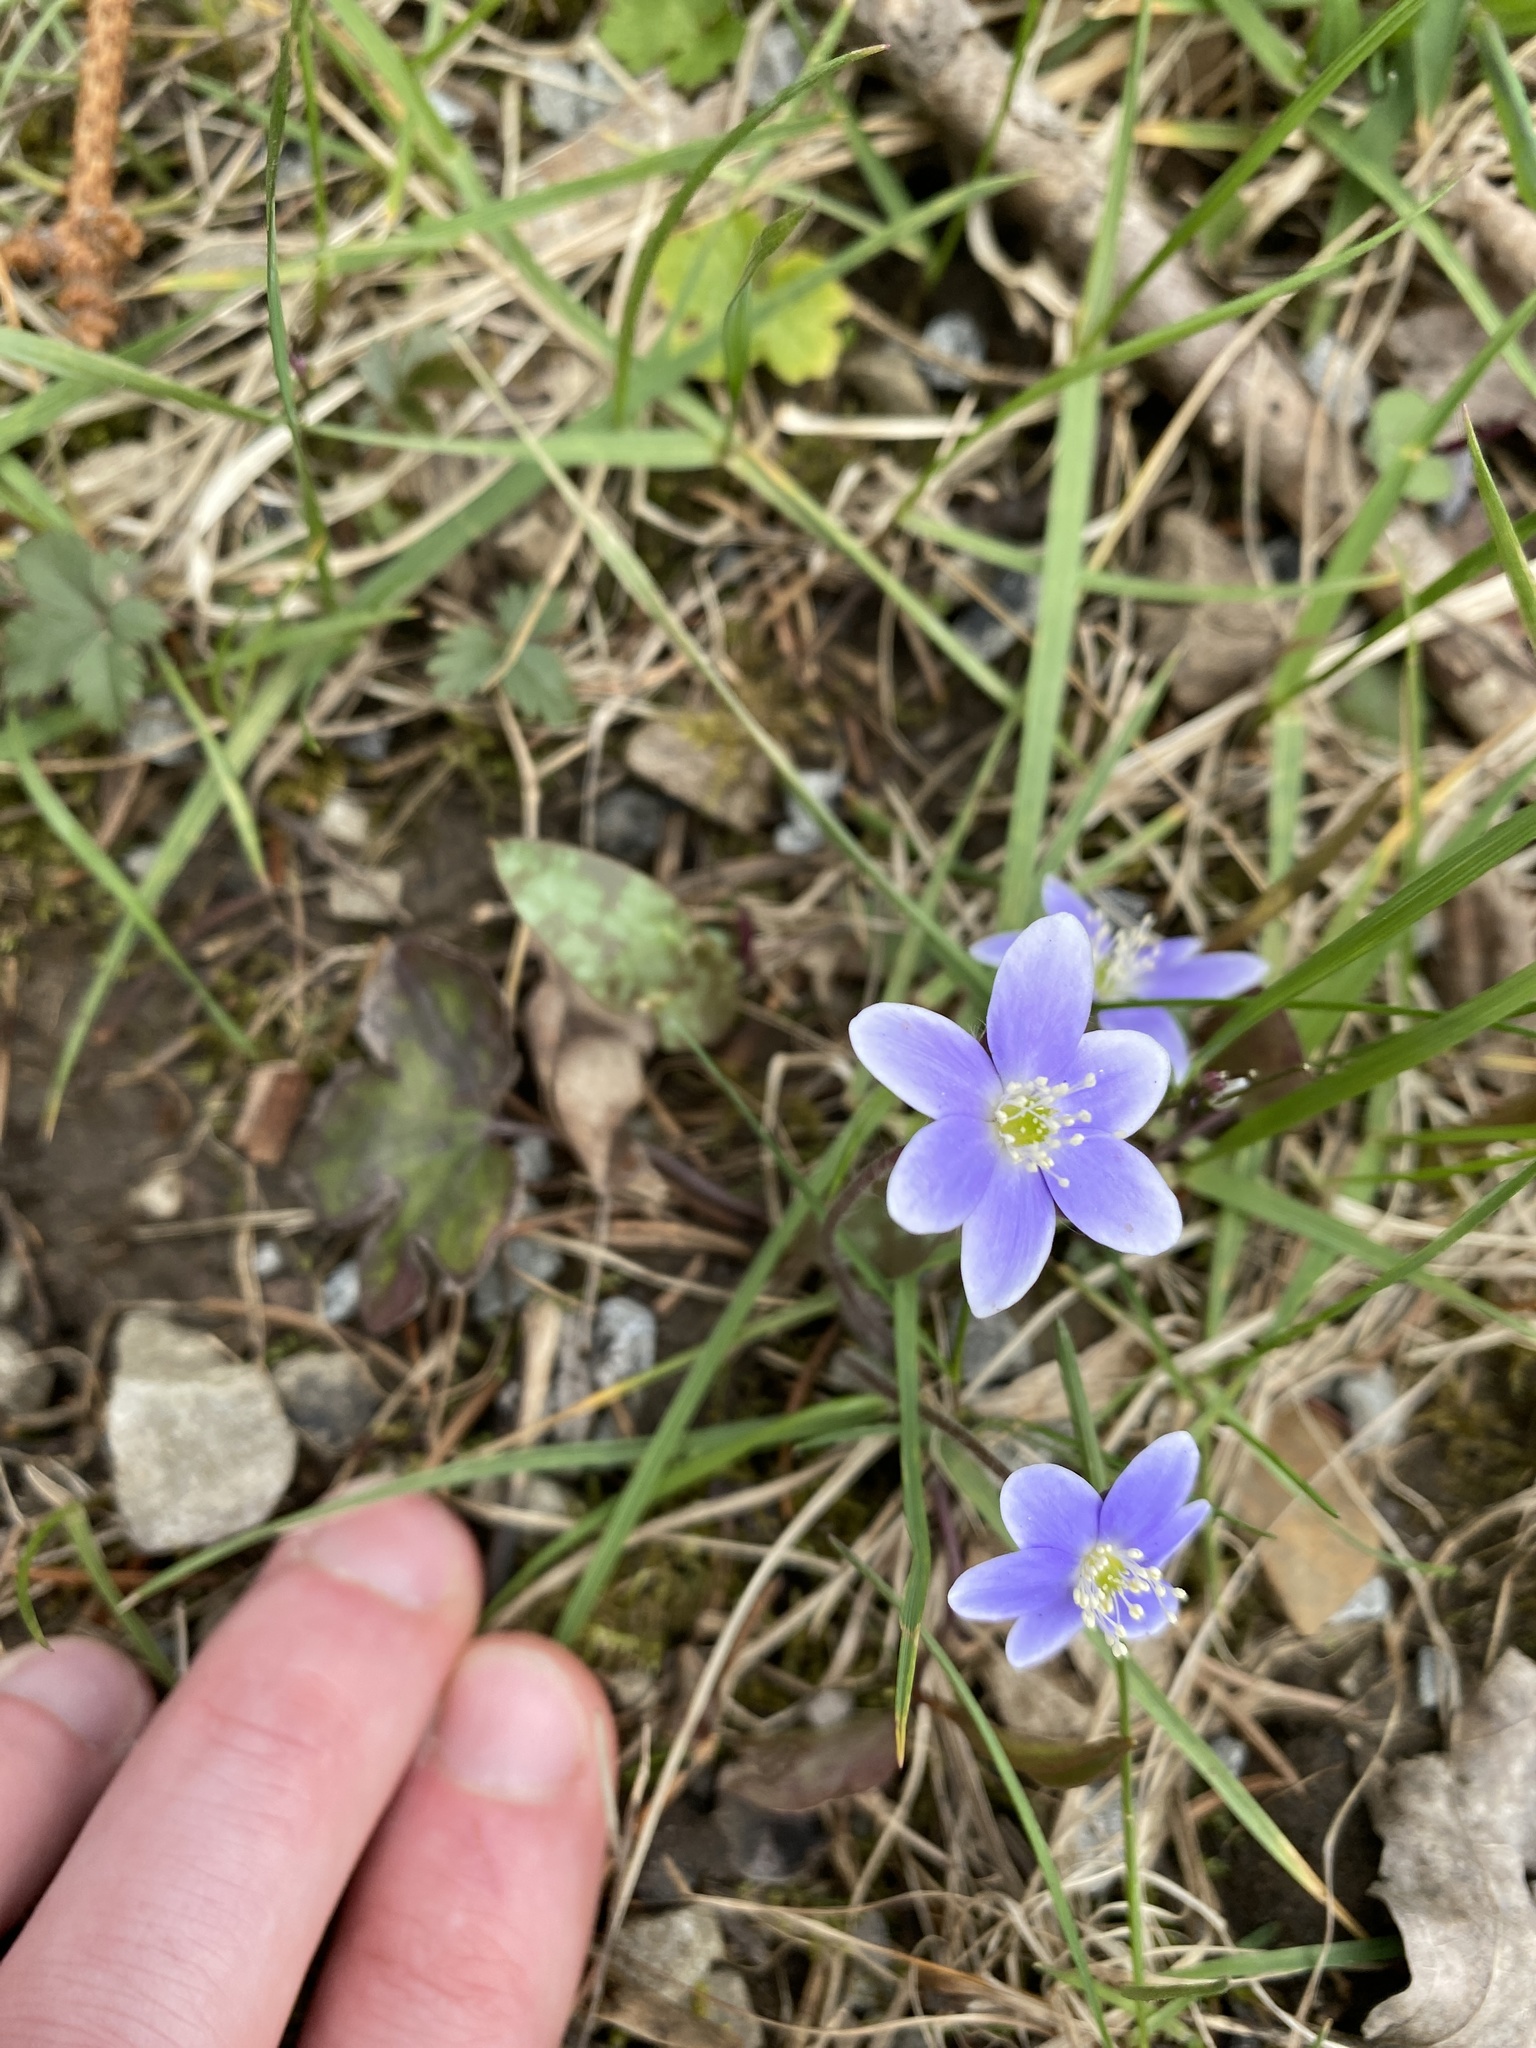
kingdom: Plantae
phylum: Tracheophyta
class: Magnoliopsida
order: Ranunculales
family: Ranunculaceae
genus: Hepatica
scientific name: Hepatica americana
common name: American hepatica
